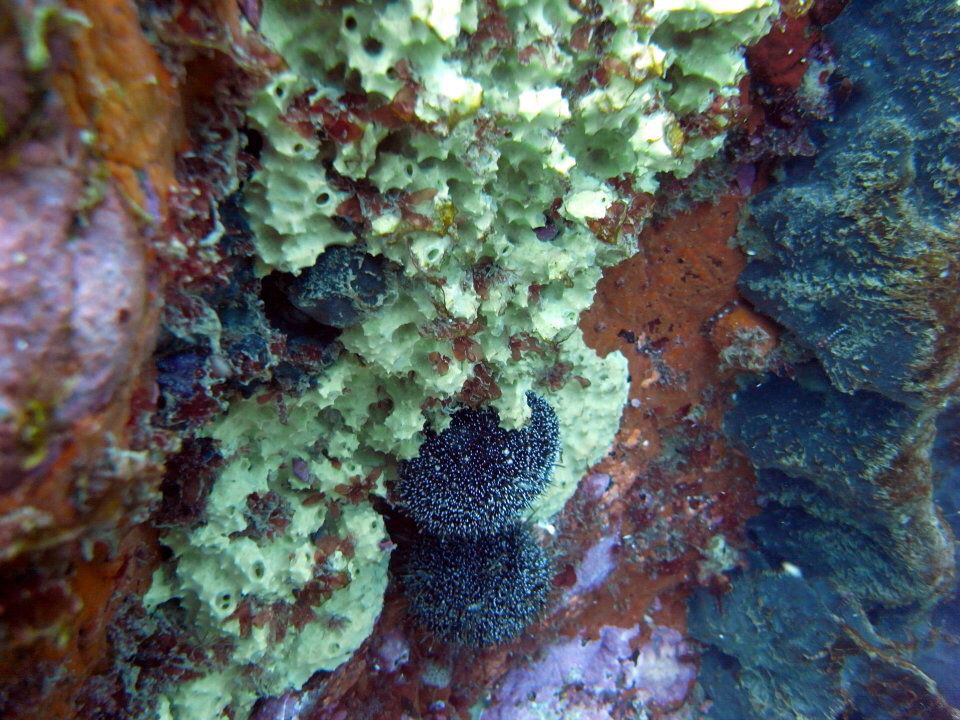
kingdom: Animalia
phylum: Porifera
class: Demospongiae
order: Dendroceratida
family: Darwinellidae
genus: Darwinella
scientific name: Darwinella oxeata
